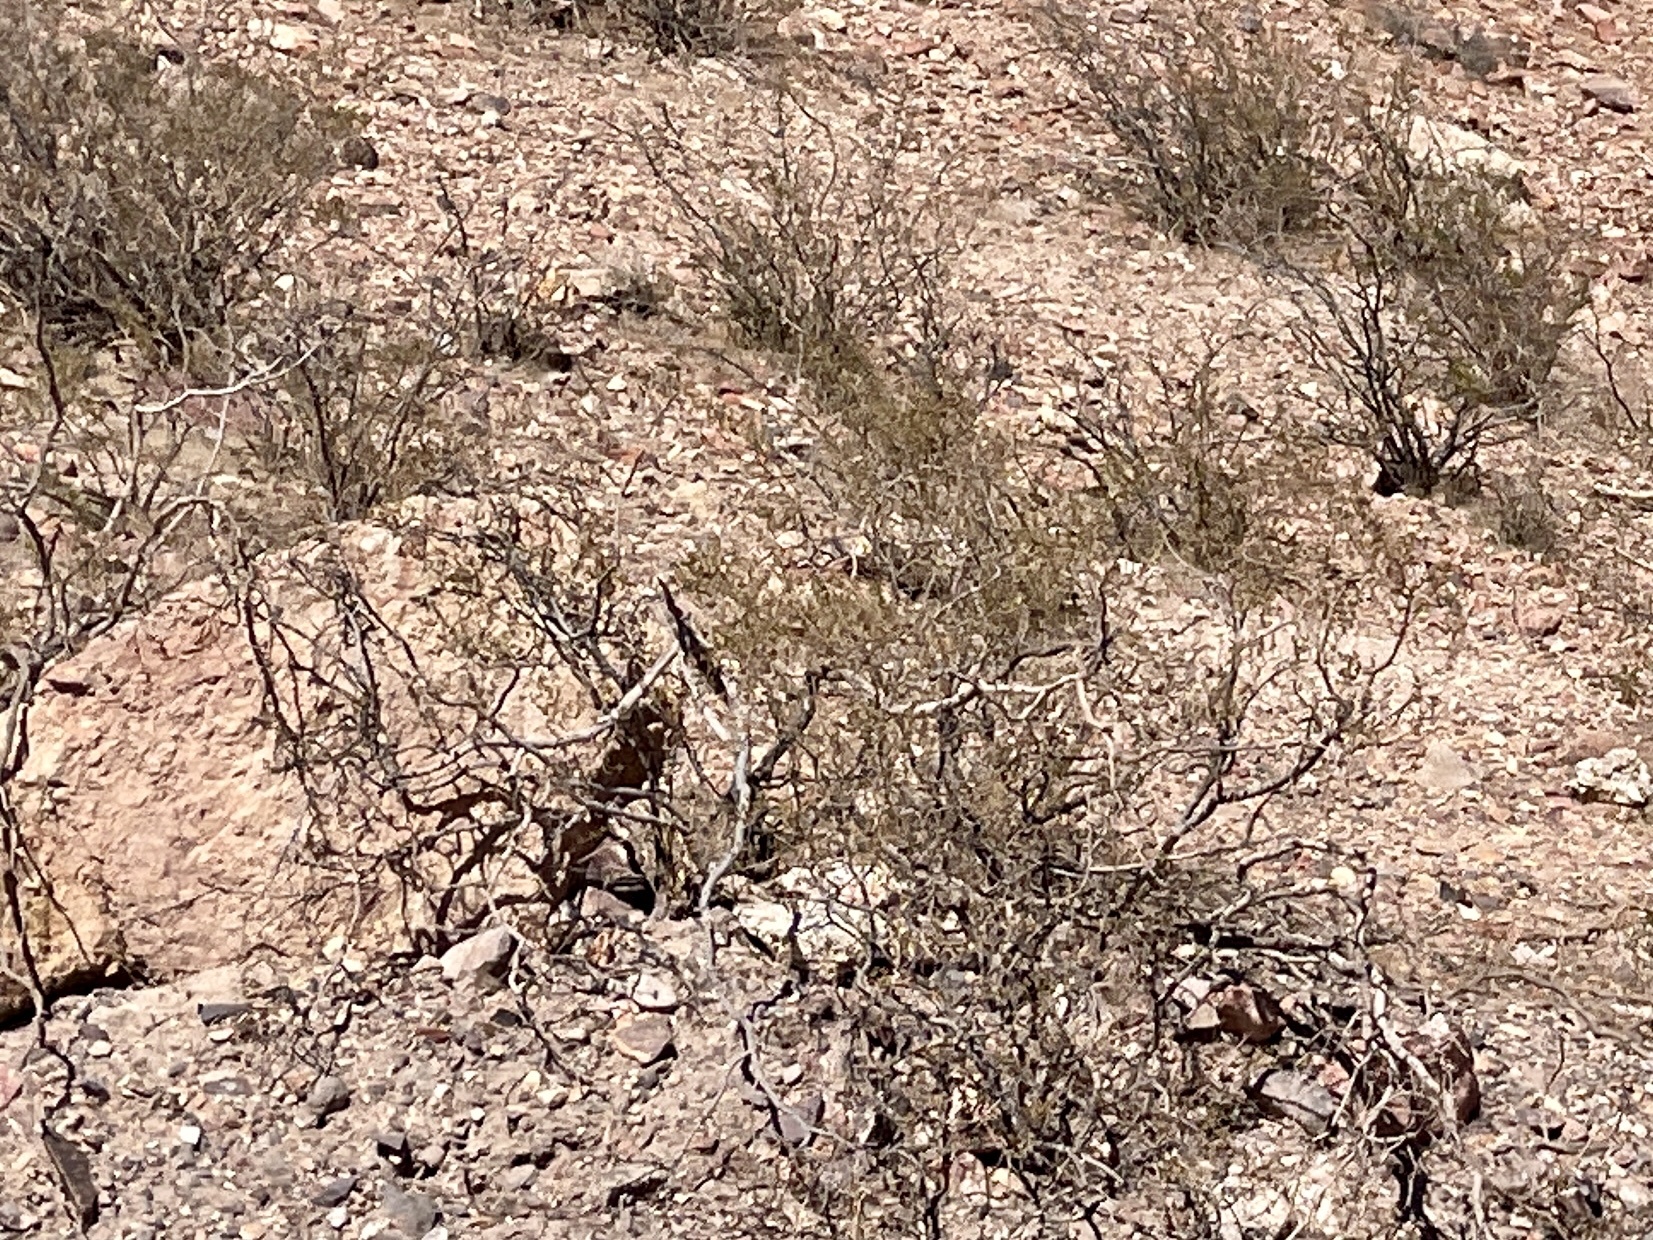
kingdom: Plantae
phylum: Tracheophyta
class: Magnoliopsida
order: Zygophyllales
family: Zygophyllaceae
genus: Larrea
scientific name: Larrea tridentata
